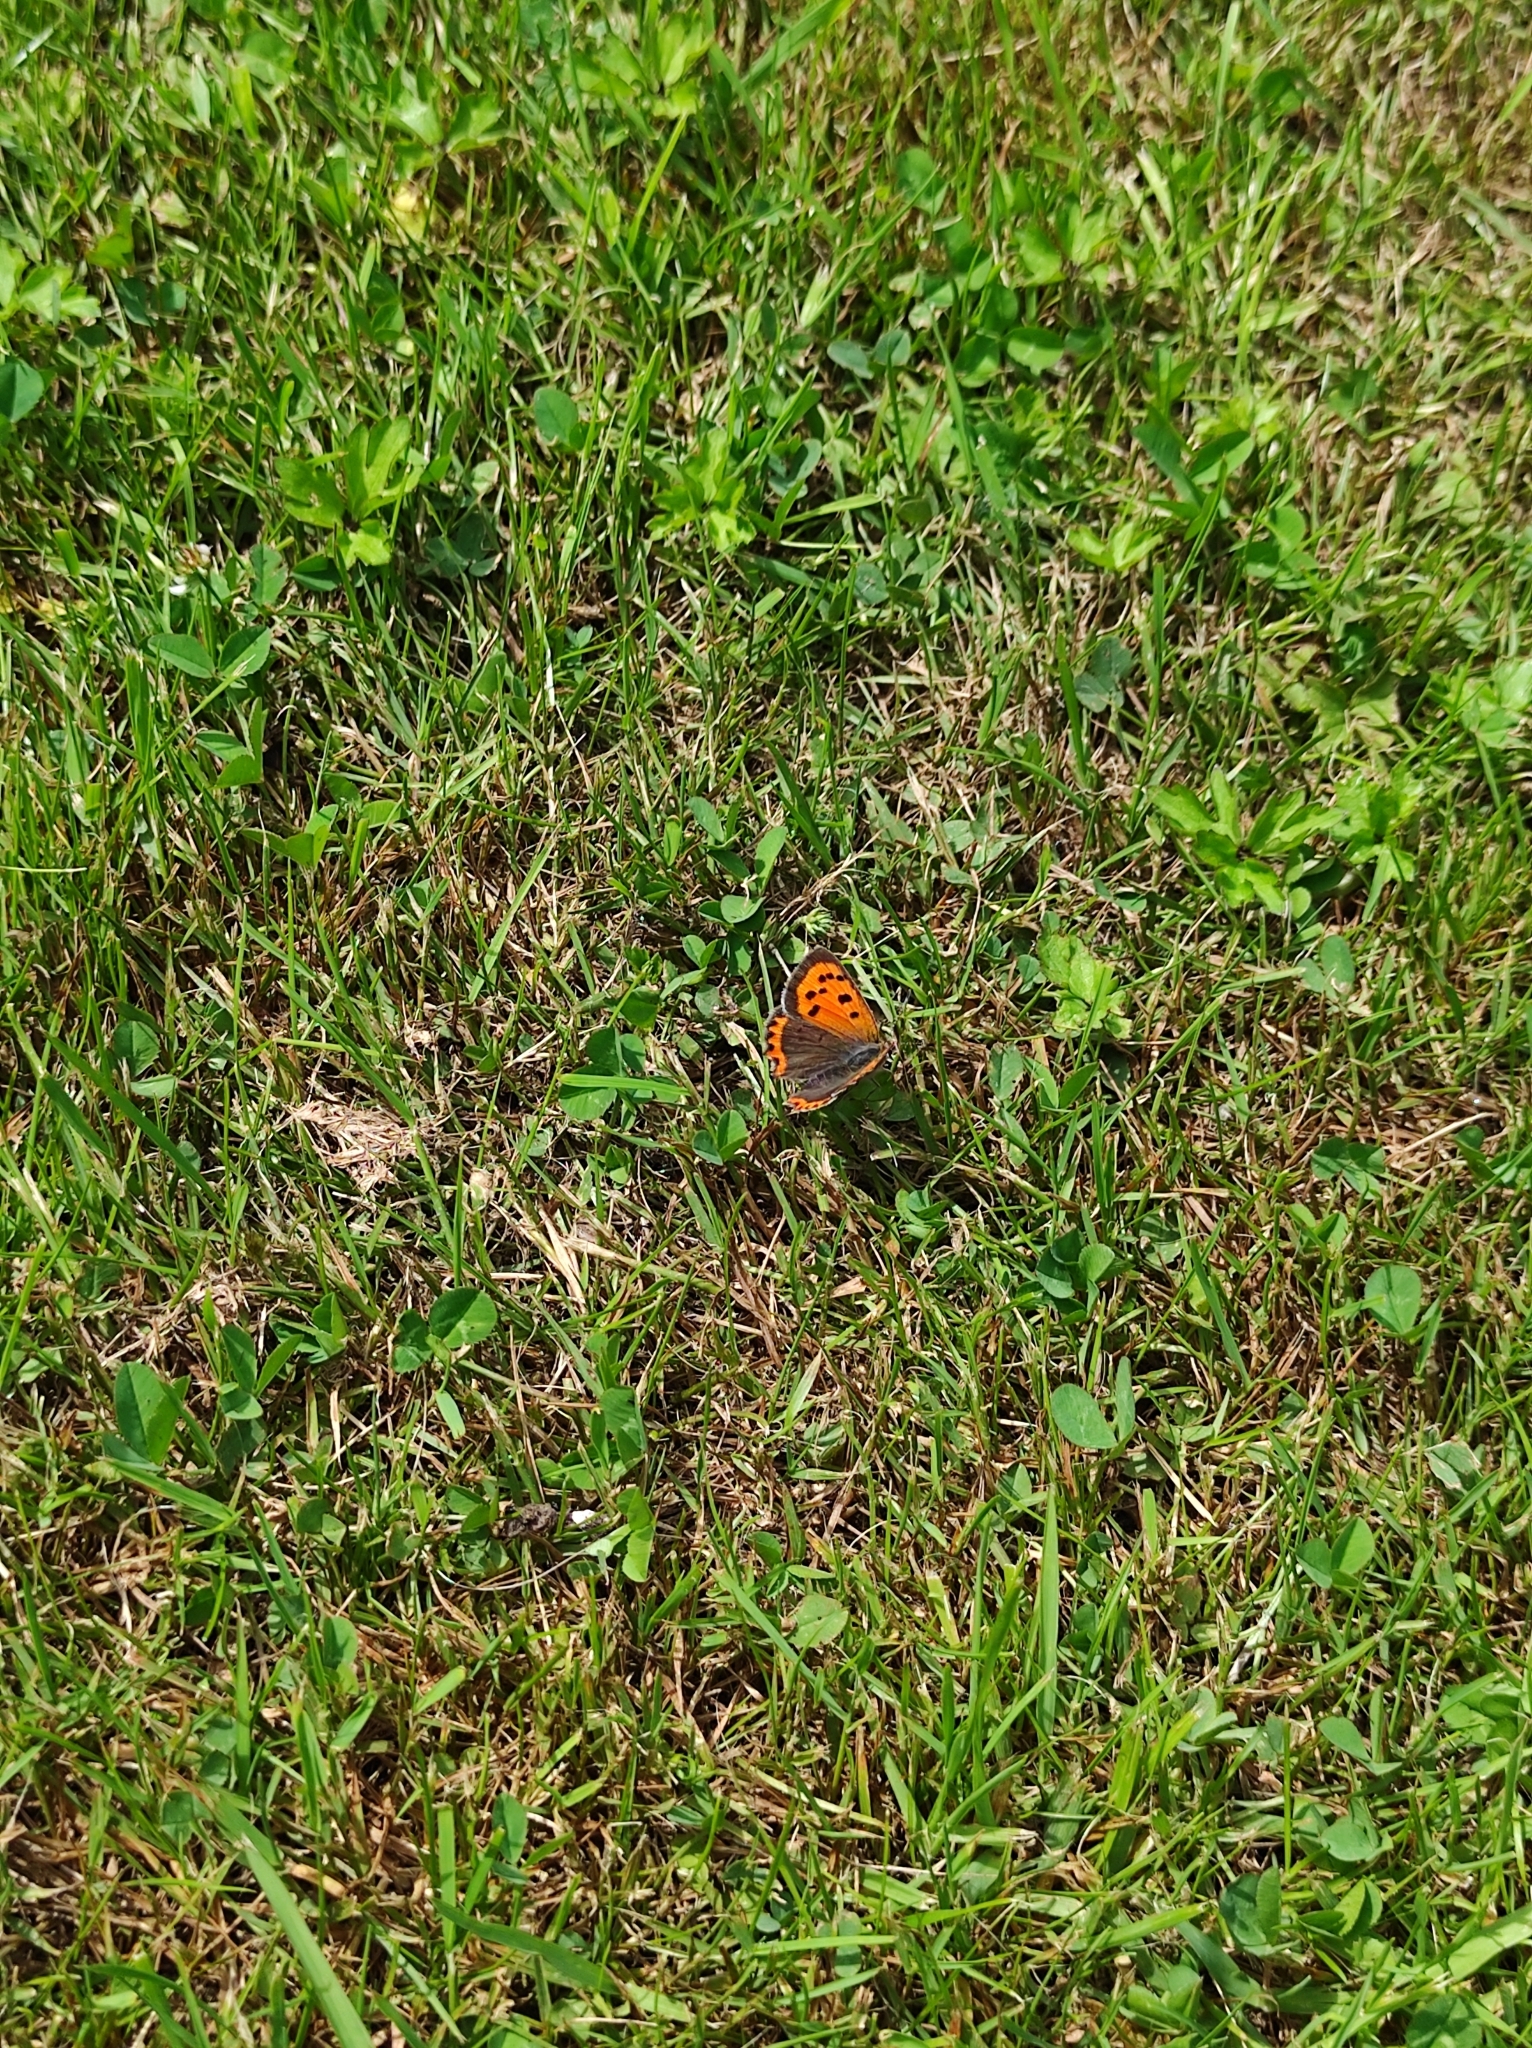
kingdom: Animalia
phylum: Arthropoda
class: Insecta
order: Lepidoptera
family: Lycaenidae
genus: Lycaena
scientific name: Lycaena phlaeas
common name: Small copper
